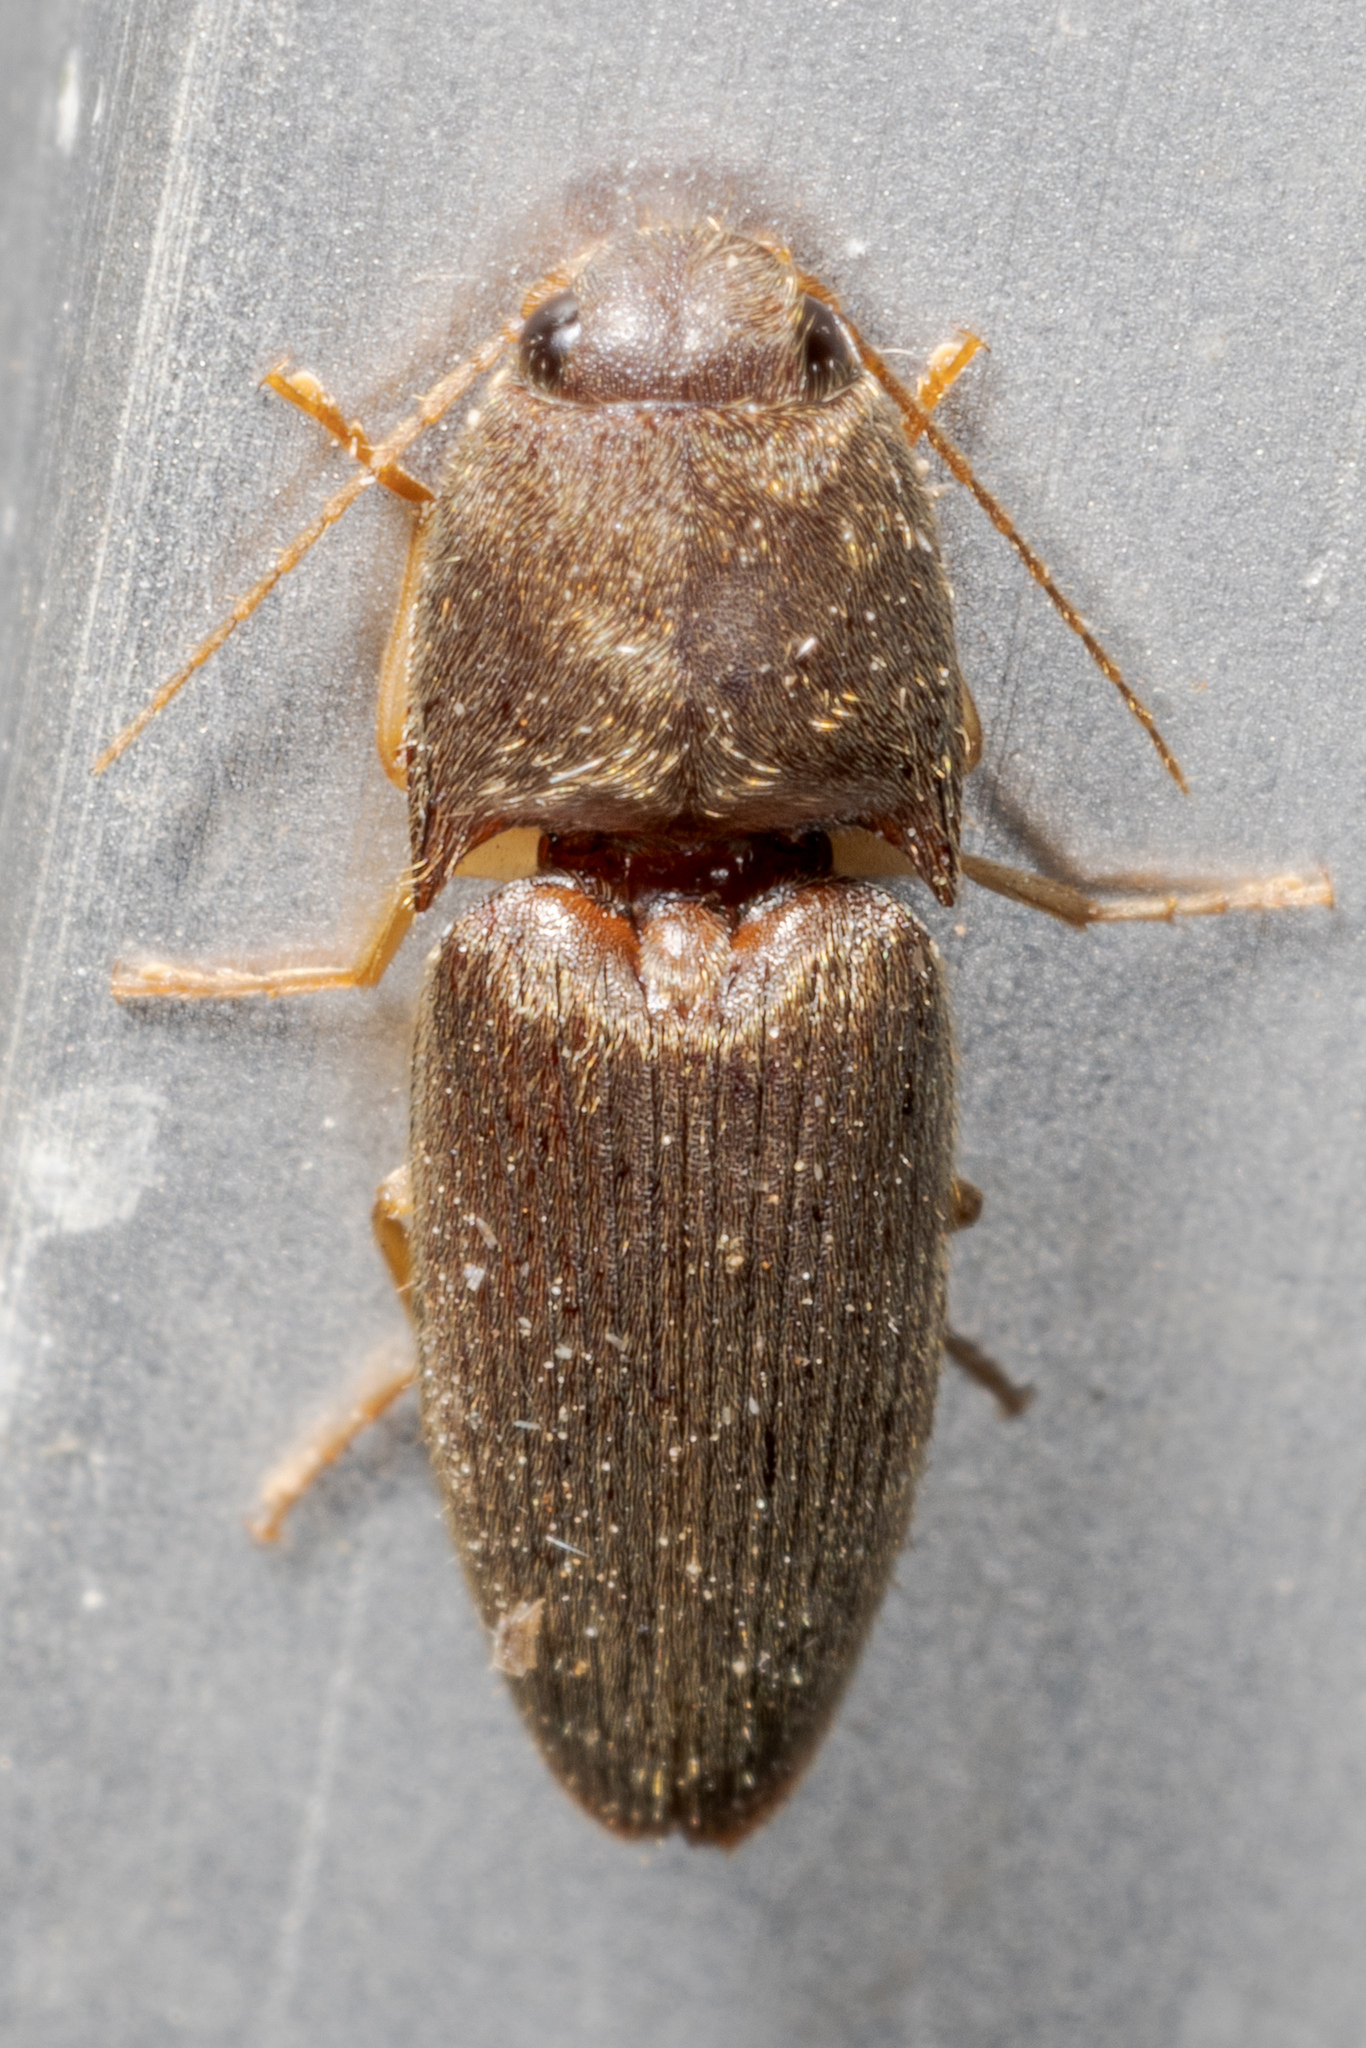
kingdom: Animalia
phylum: Arthropoda
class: Insecta
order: Coleoptera
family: Elateridae
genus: Conoderus
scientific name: Conoderus exsul
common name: Click beetle
